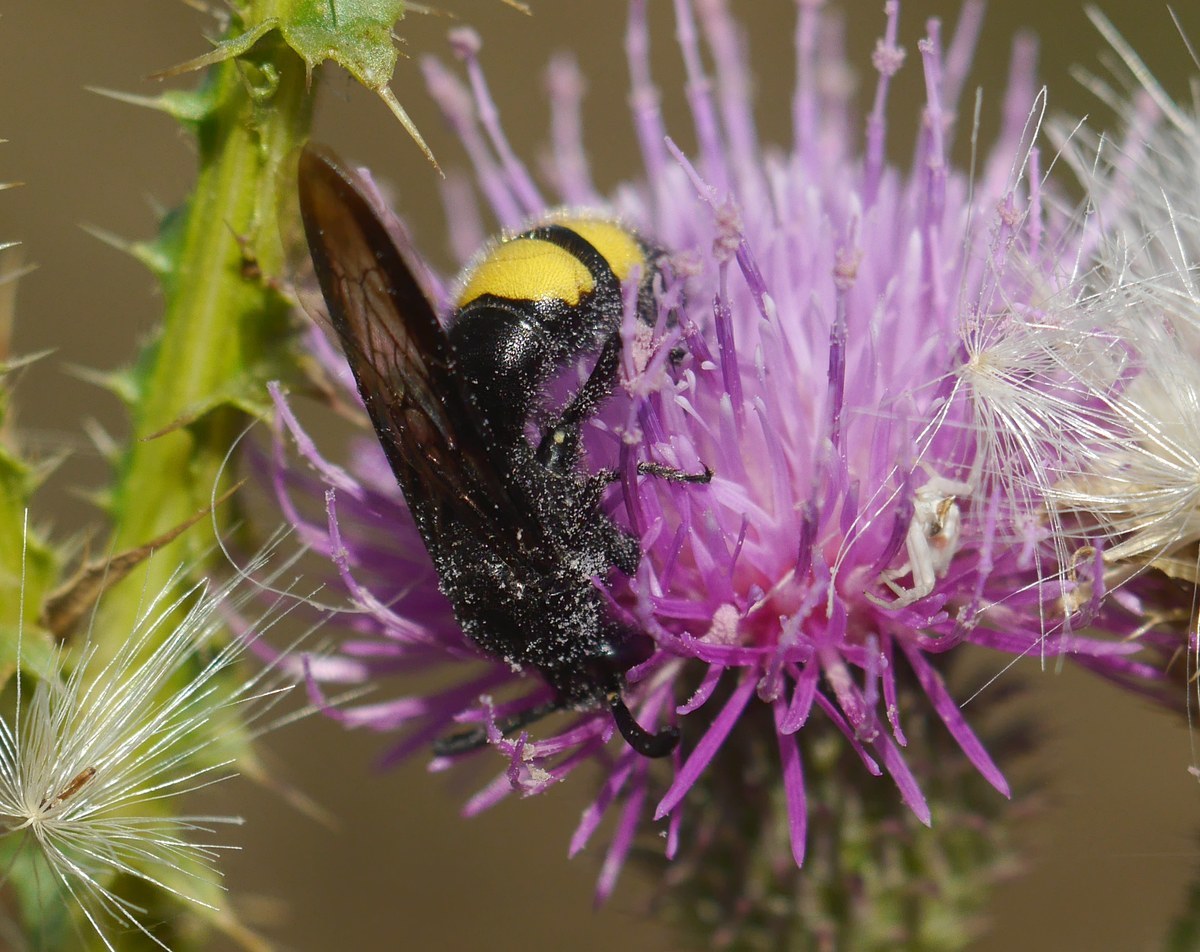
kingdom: Animalia
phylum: Arthropoda
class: Insecta
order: Hymenoptera
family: Scoliidae
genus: Scolia
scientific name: Scolia hirta
